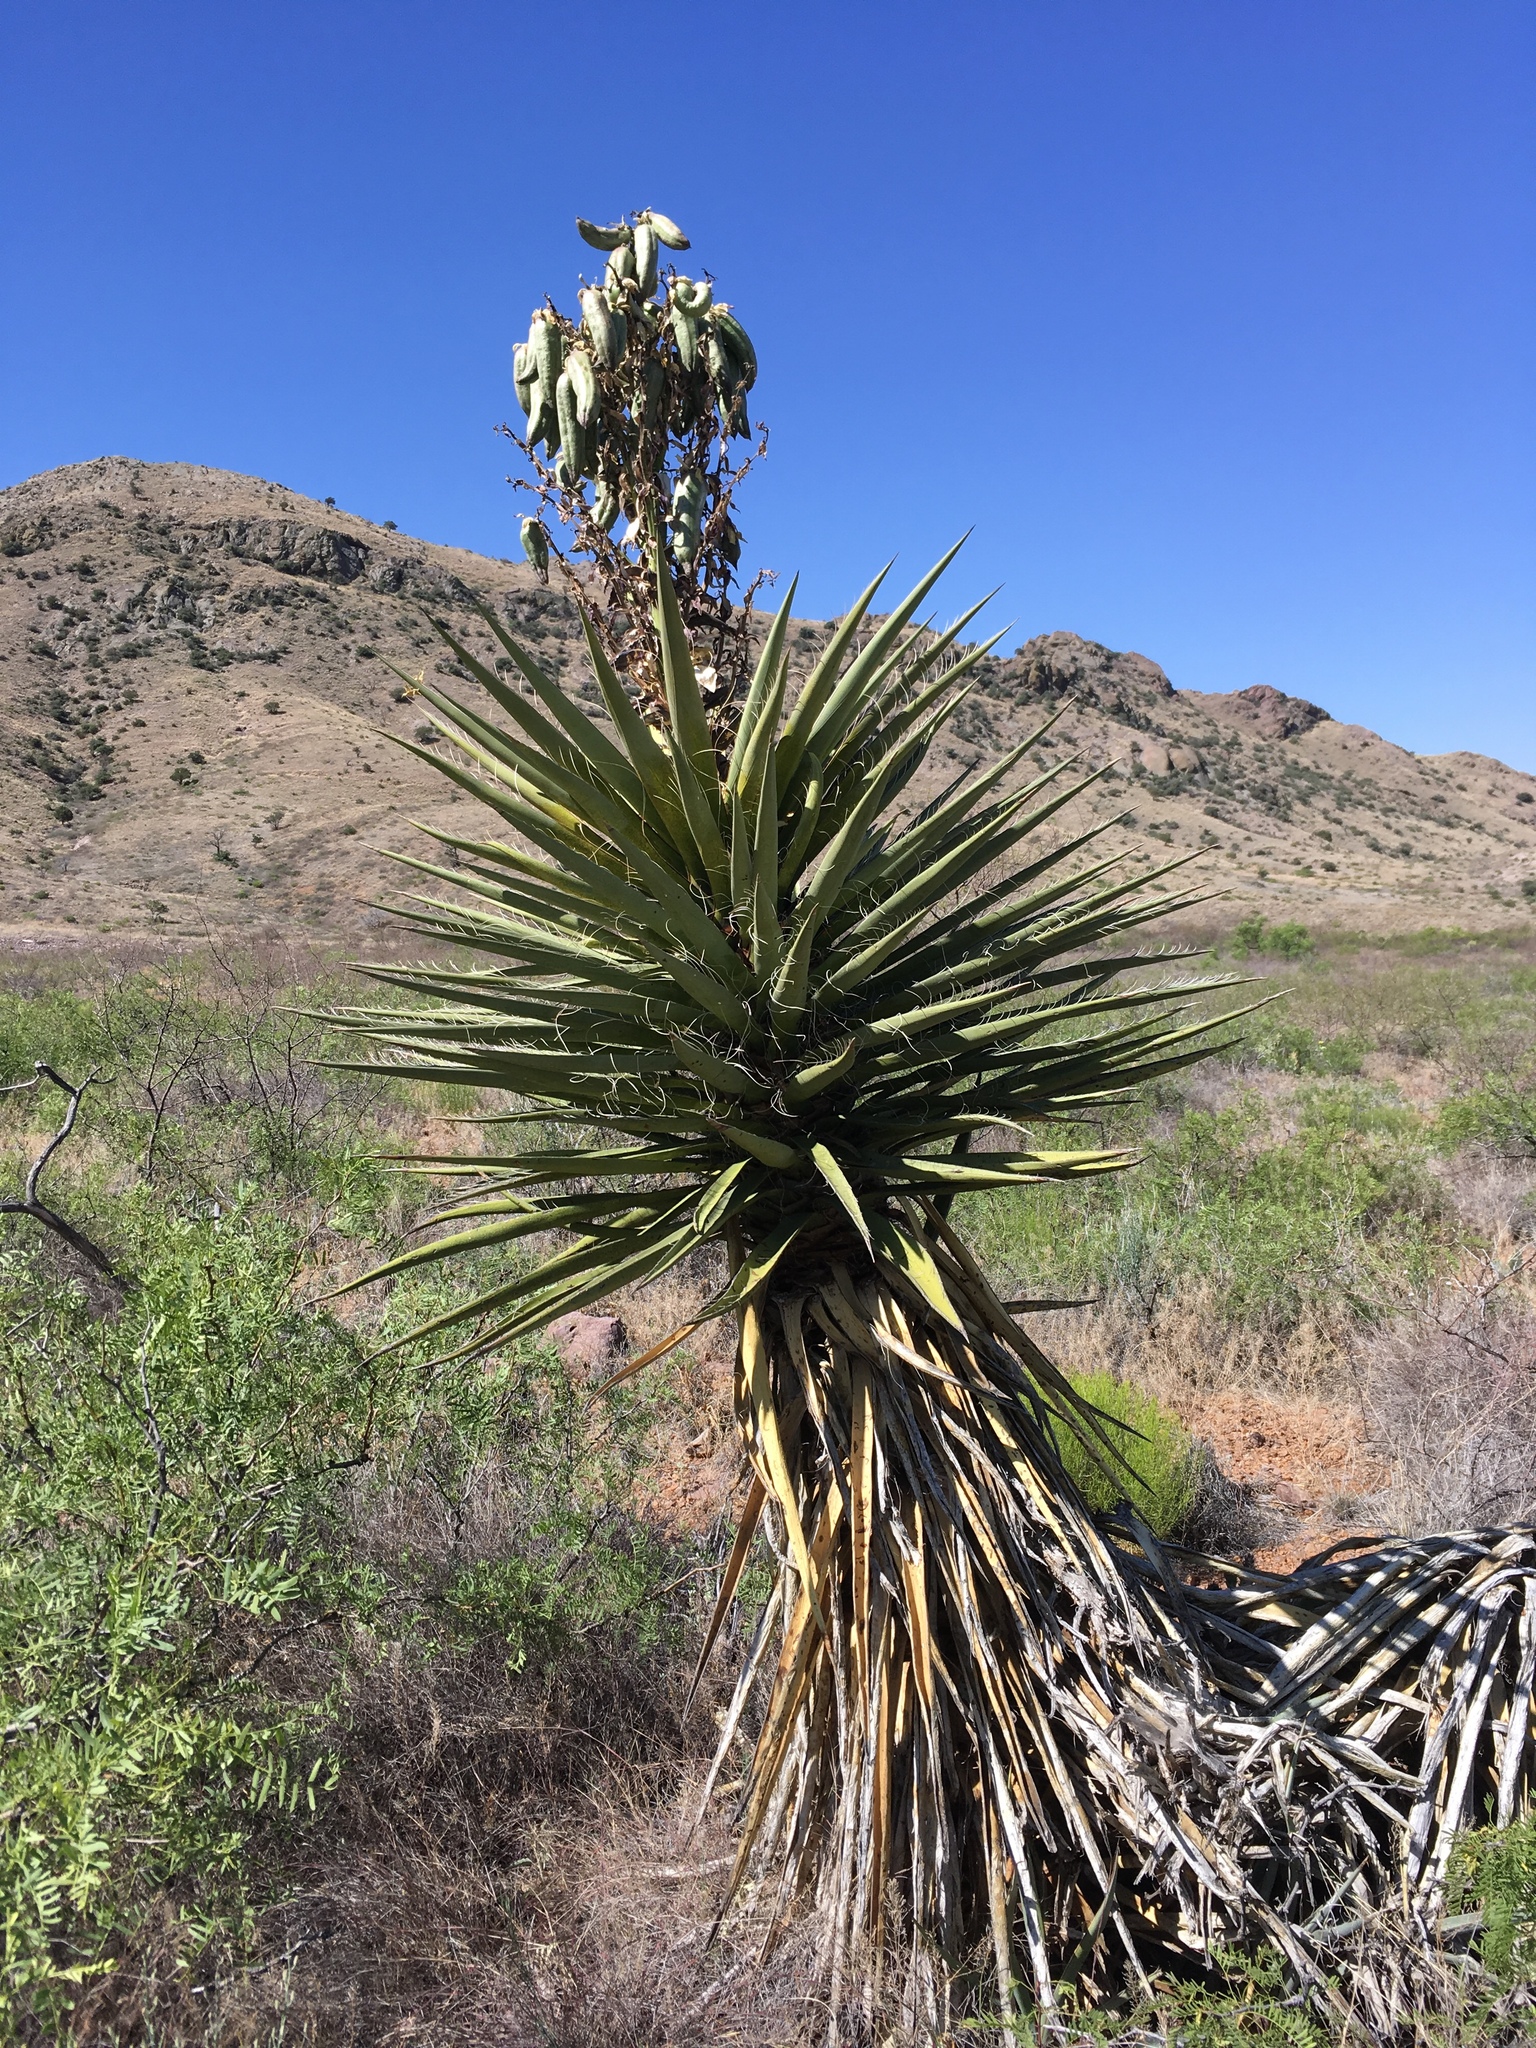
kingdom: Plantae
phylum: Tracheophyta
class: Liliopsida
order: Asparagales
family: Asparagaceae
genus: Yucca
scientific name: Yucca treculiana
